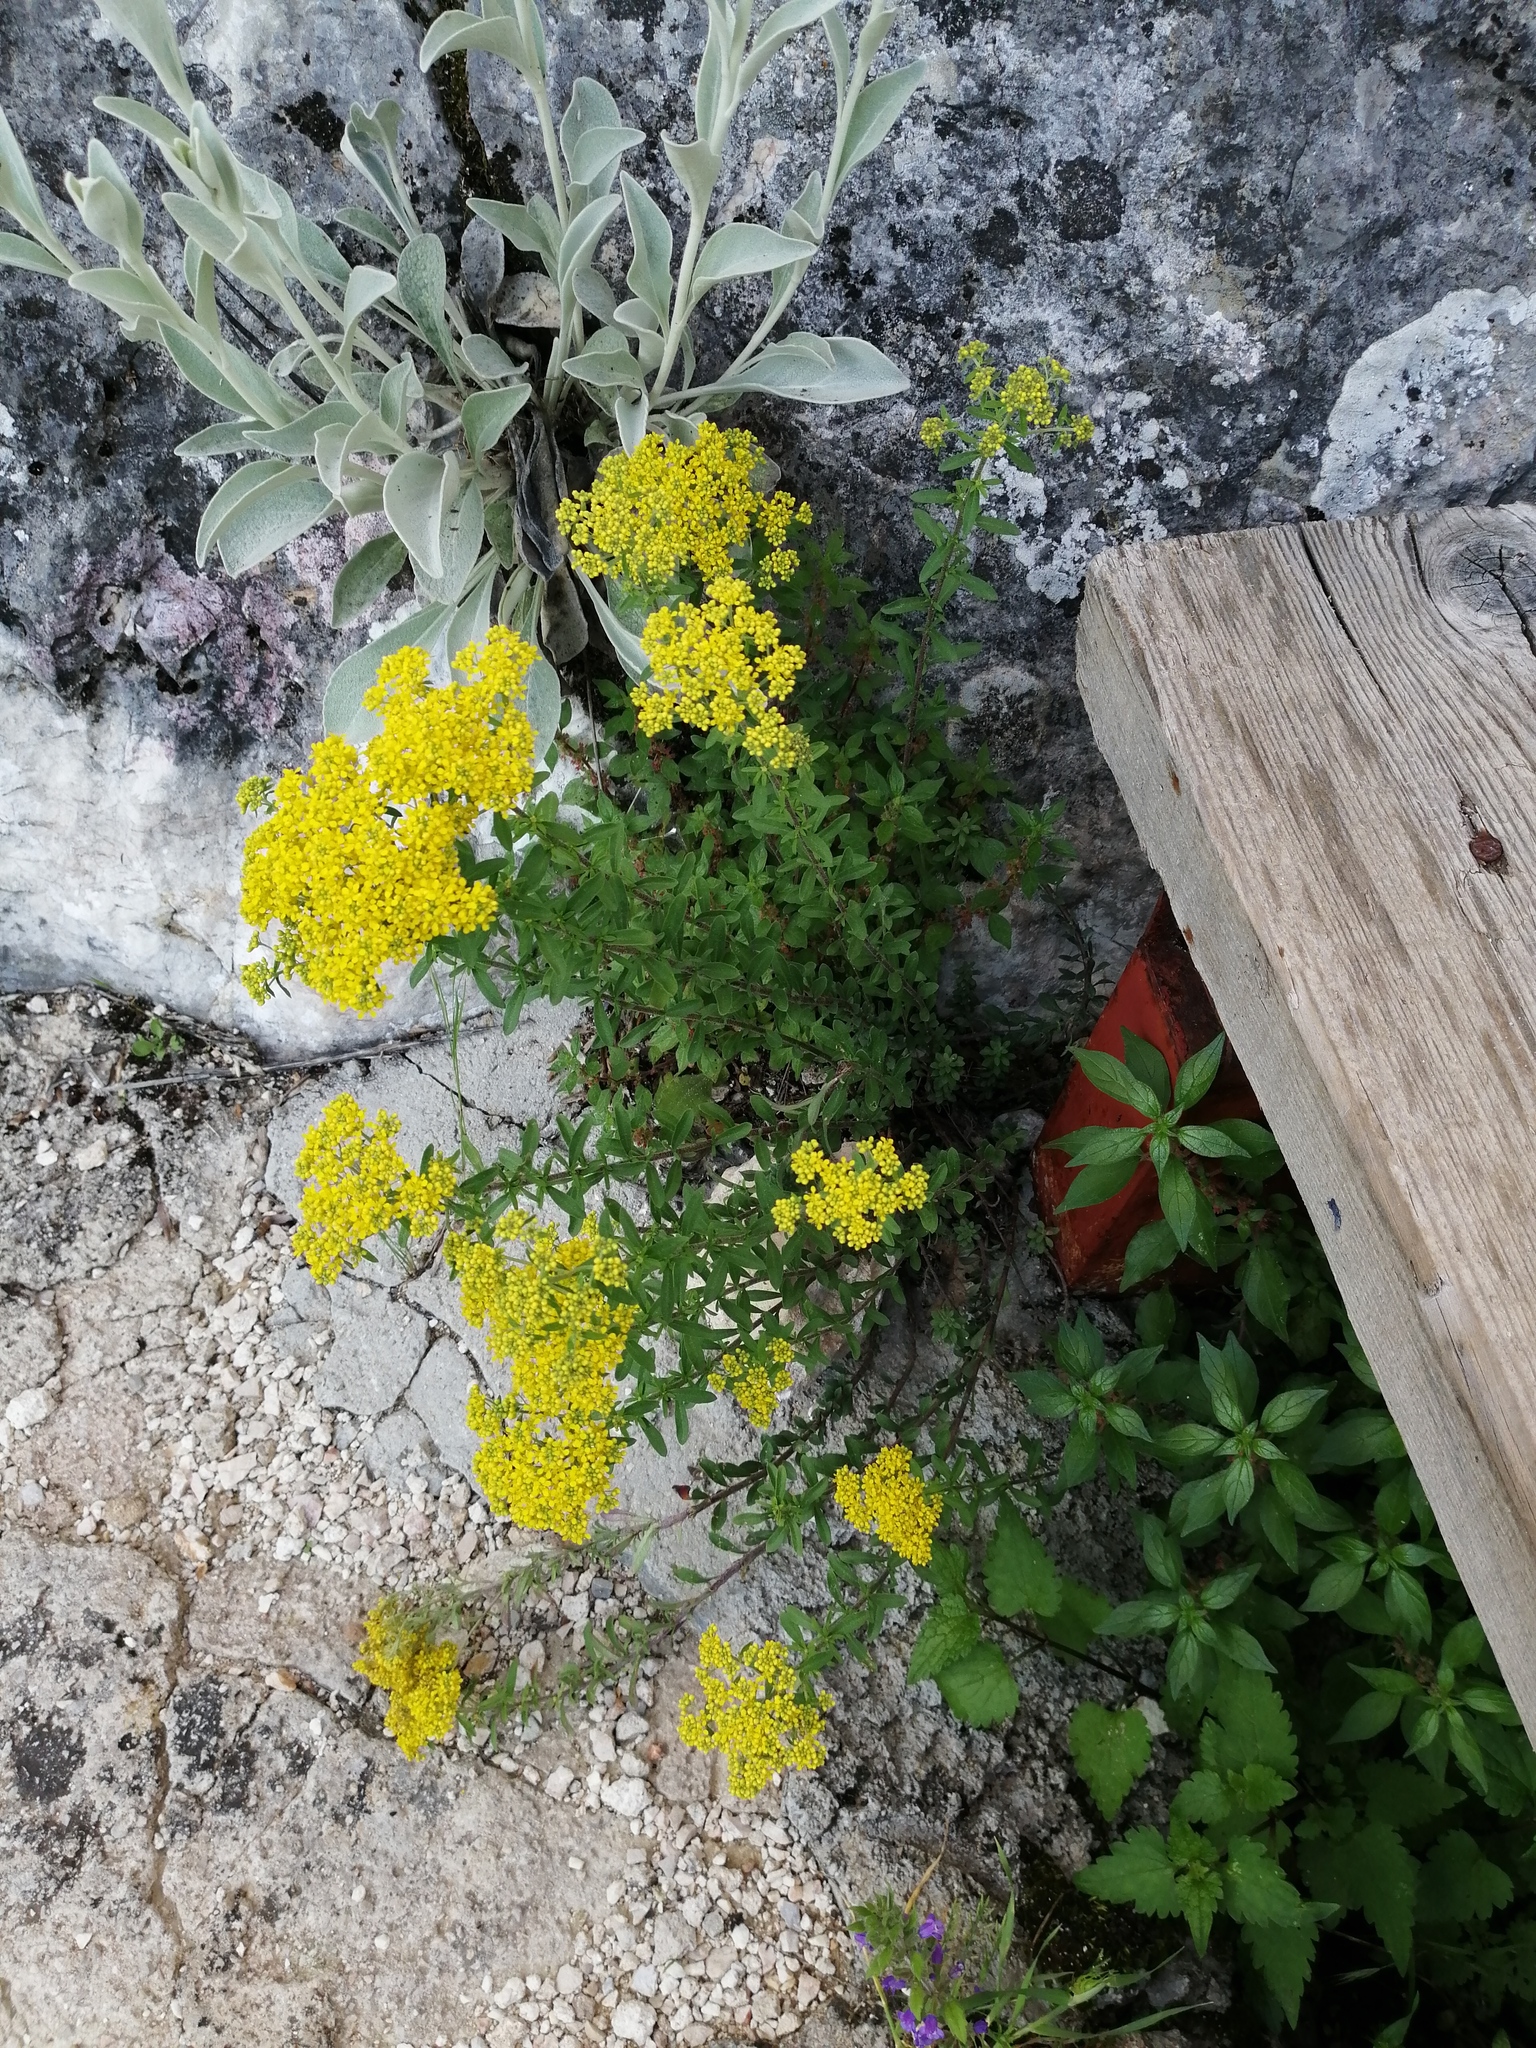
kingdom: Plantae
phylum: Tracheophyta
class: Magnoliopsida
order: Brassicales
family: Brassicaceae
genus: Odontarrhena
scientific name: Odontarrhena muralis
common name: Rock alyssum
